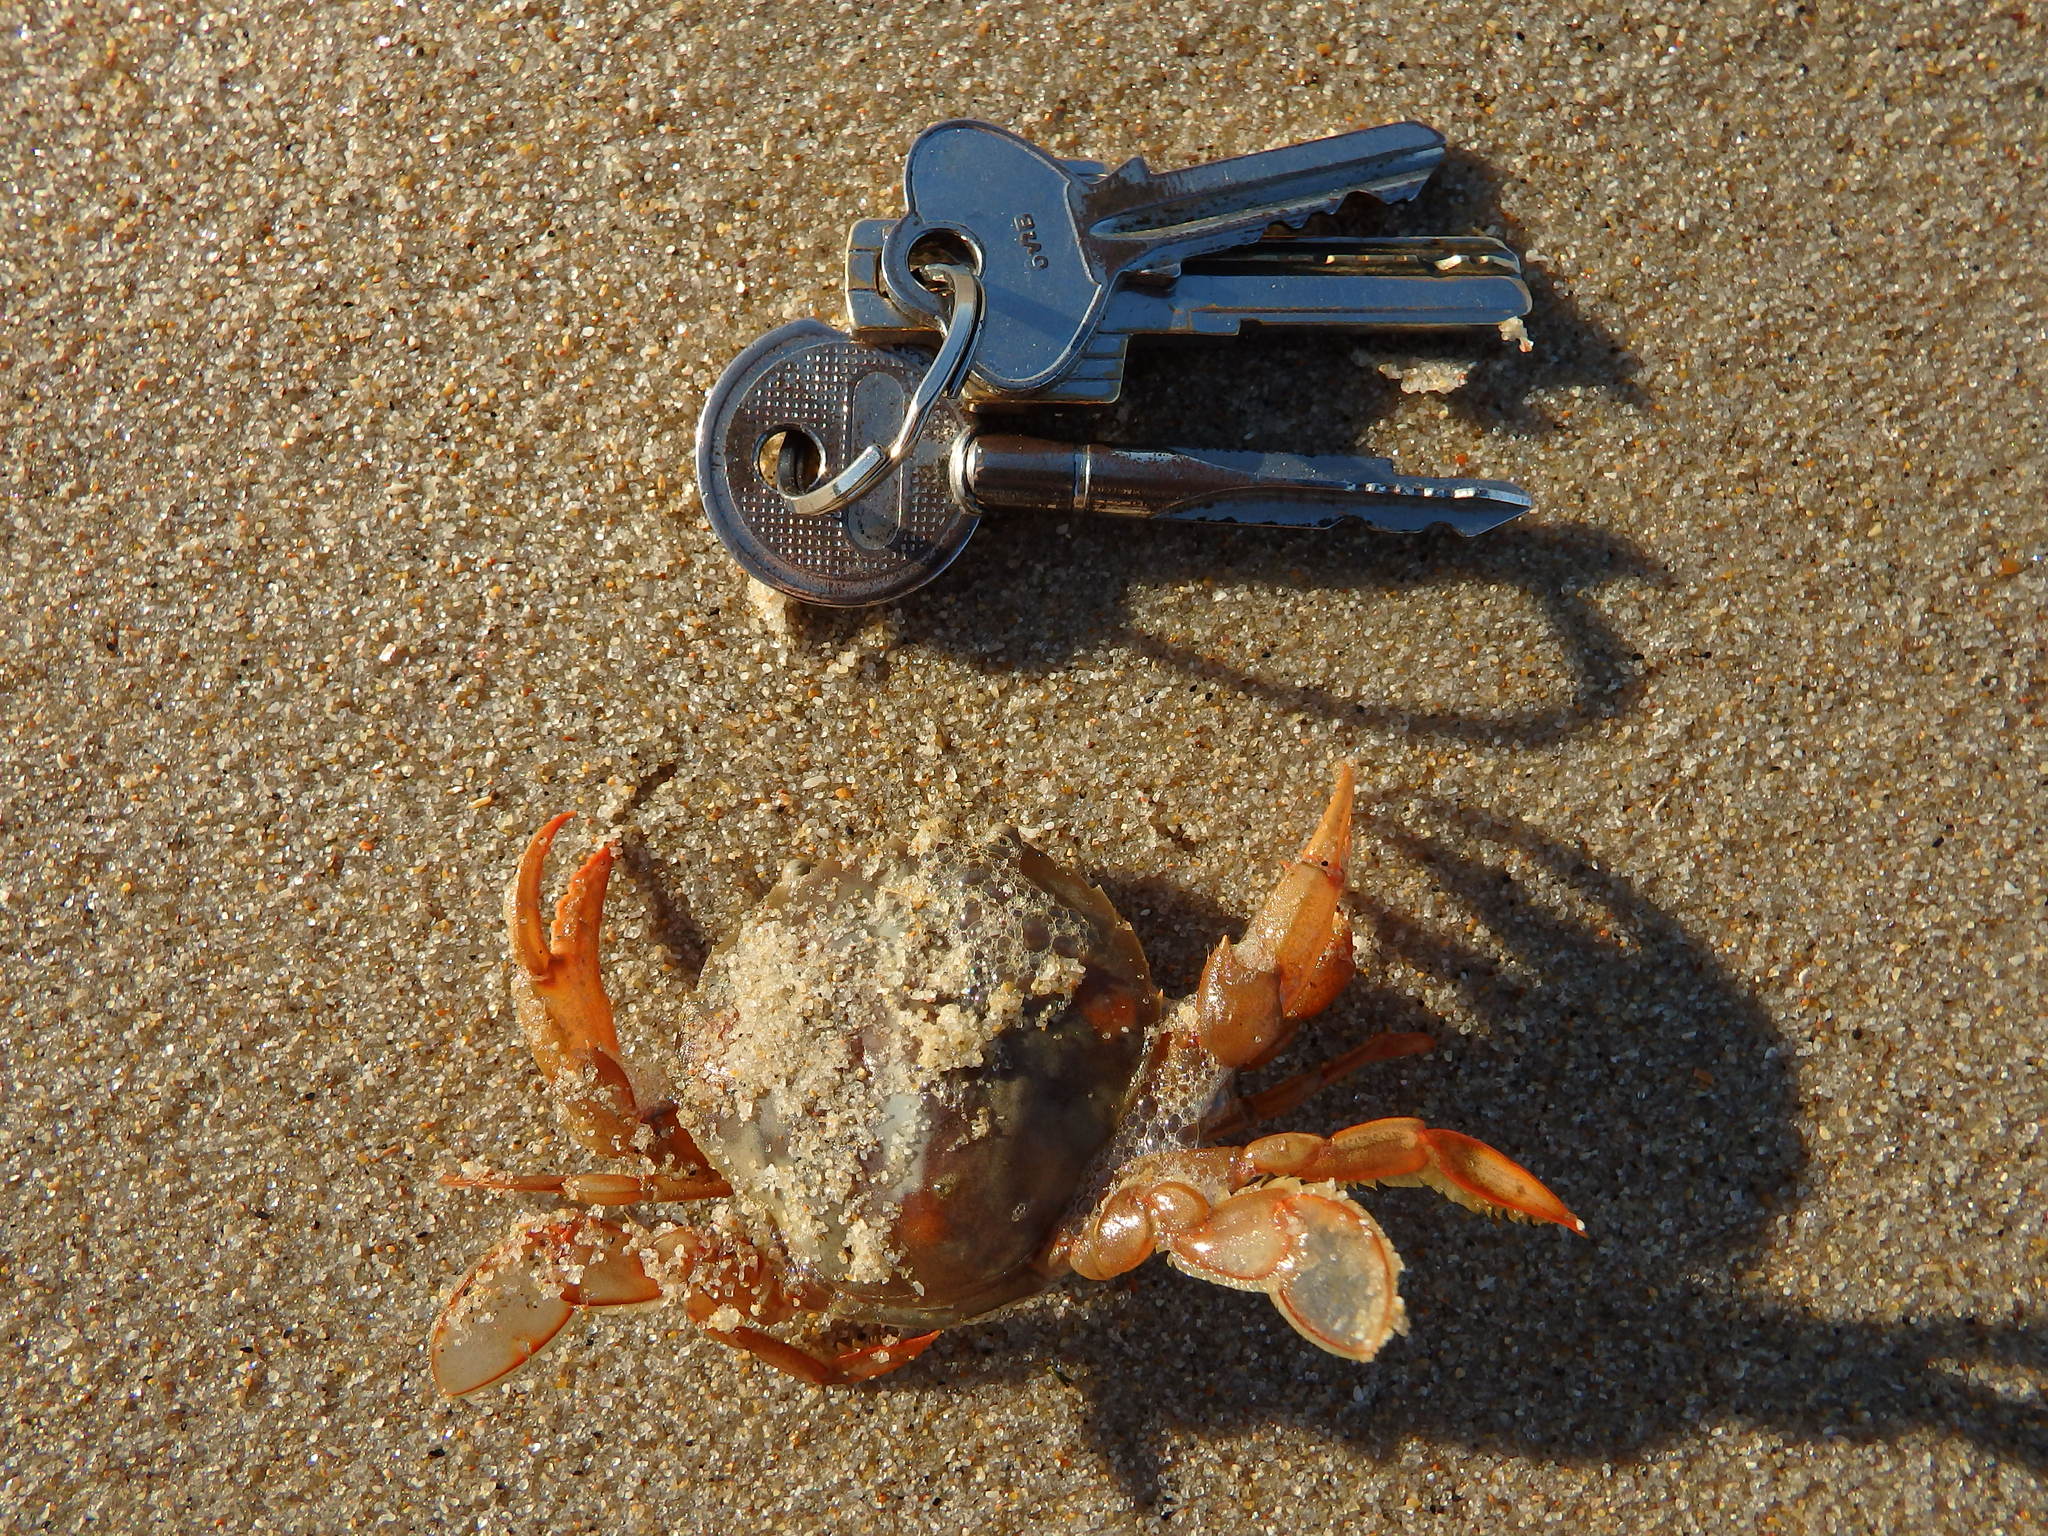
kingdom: Animalia
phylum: Arthropoda
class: Malacostraca
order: Decapoda
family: Polybiidae
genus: Polybius
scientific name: Polybius henslowii
